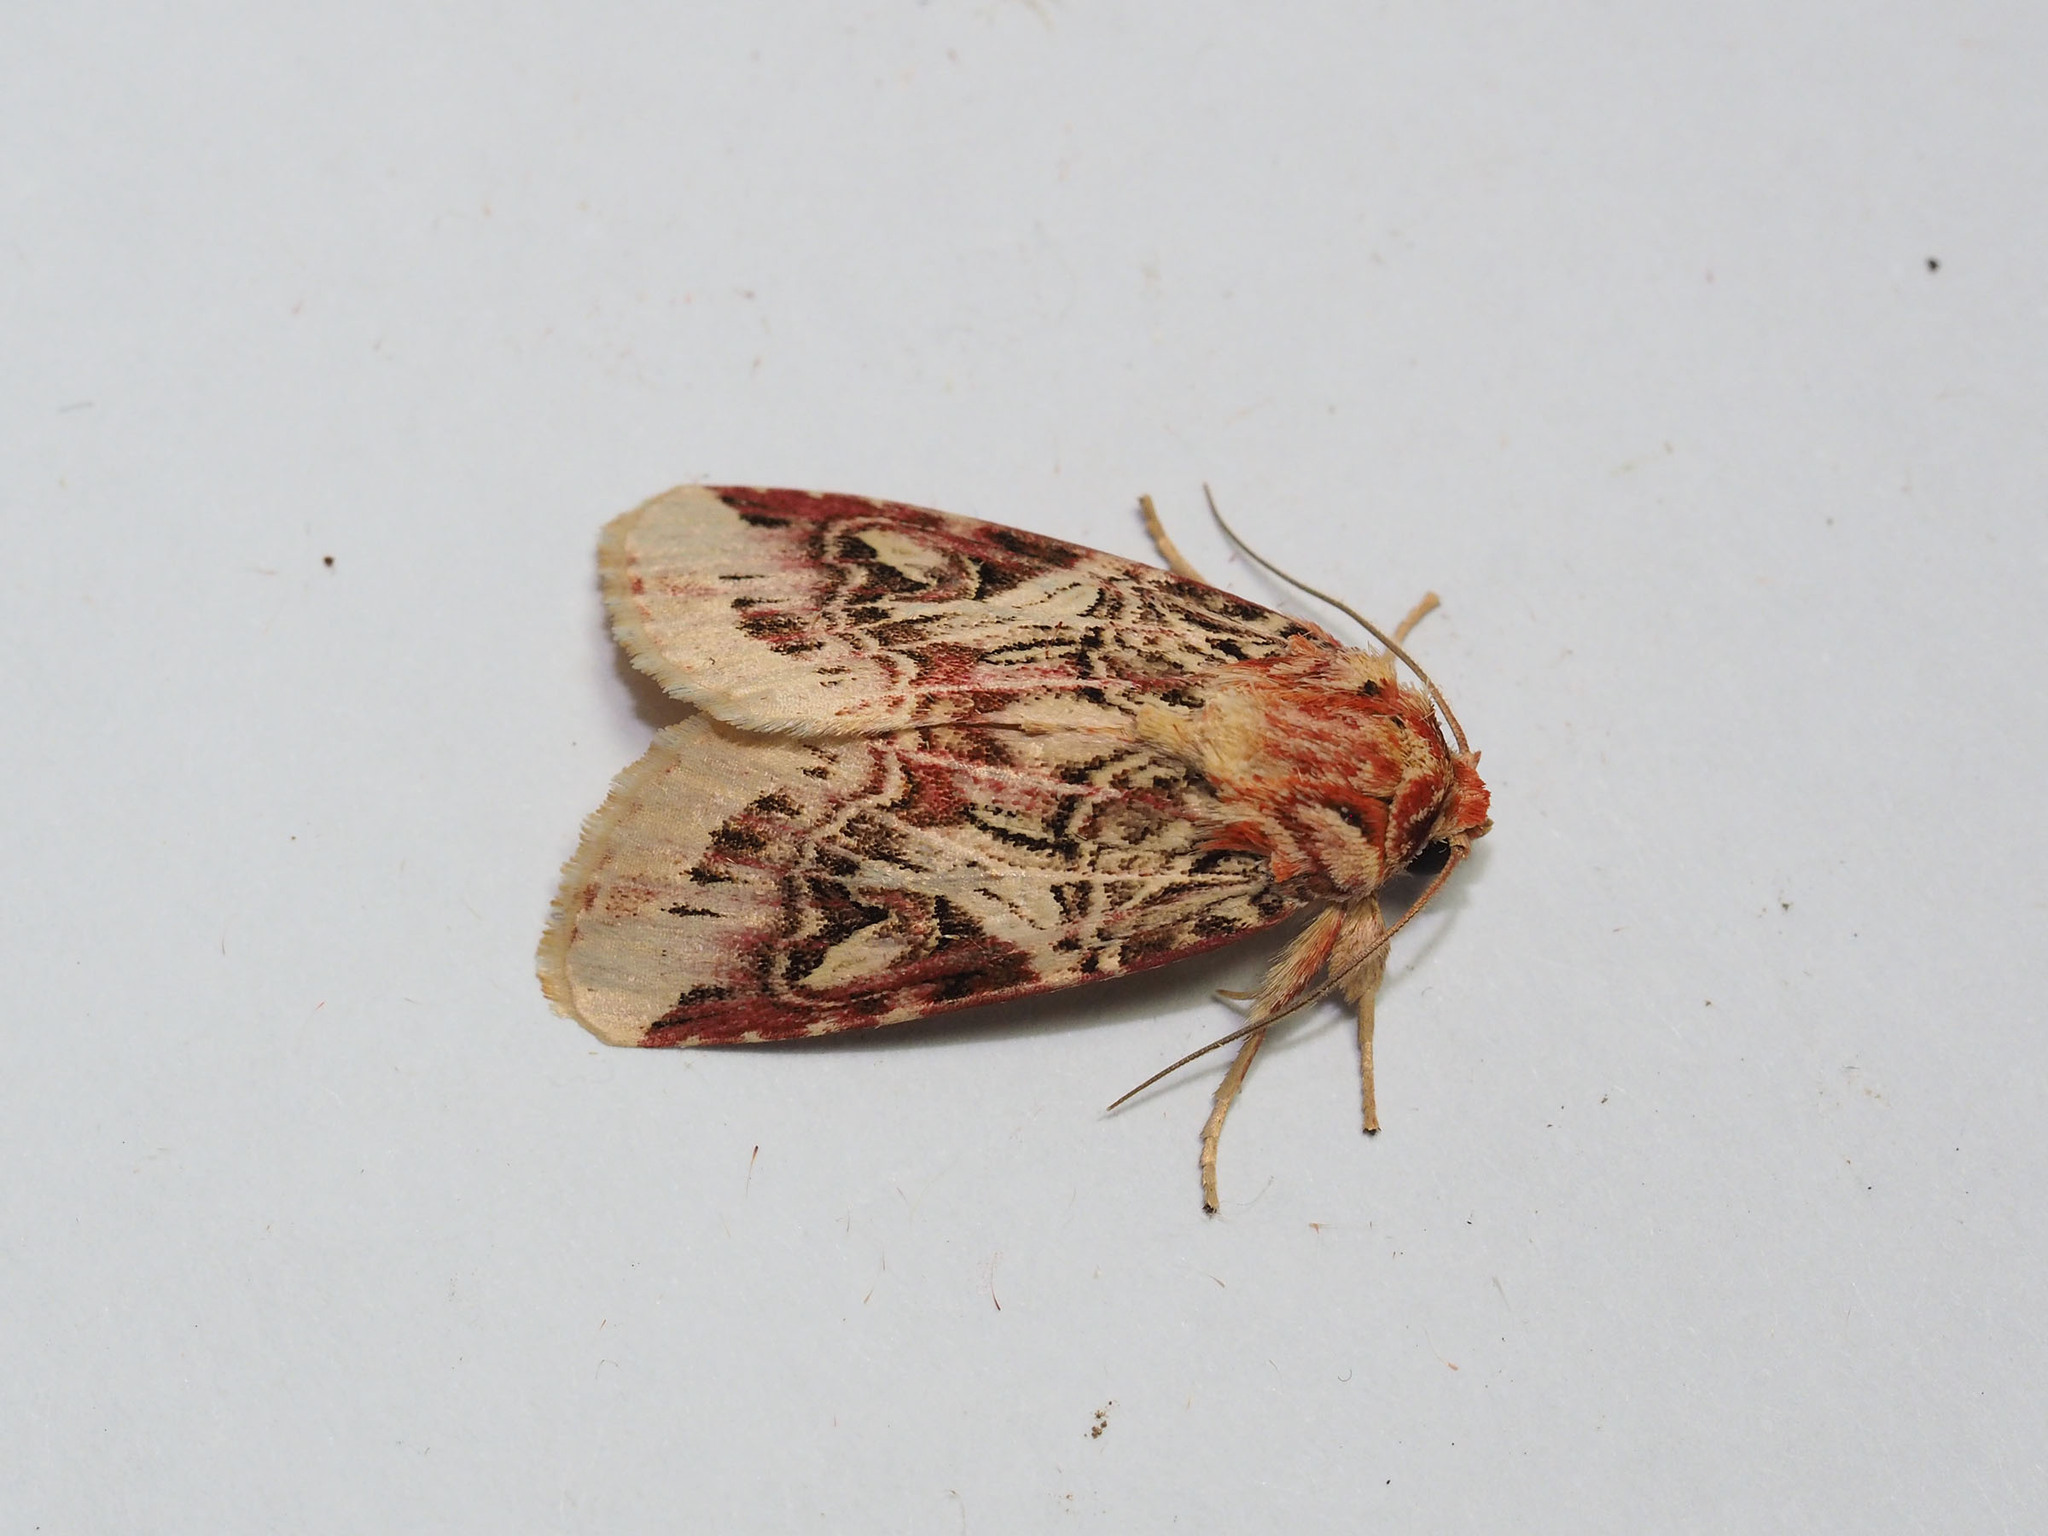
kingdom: Animalia
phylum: Arthropoda
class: Insecta
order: Lepidoptera
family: Noctuidae
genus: Spodoptera
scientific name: Spodoptera picta
